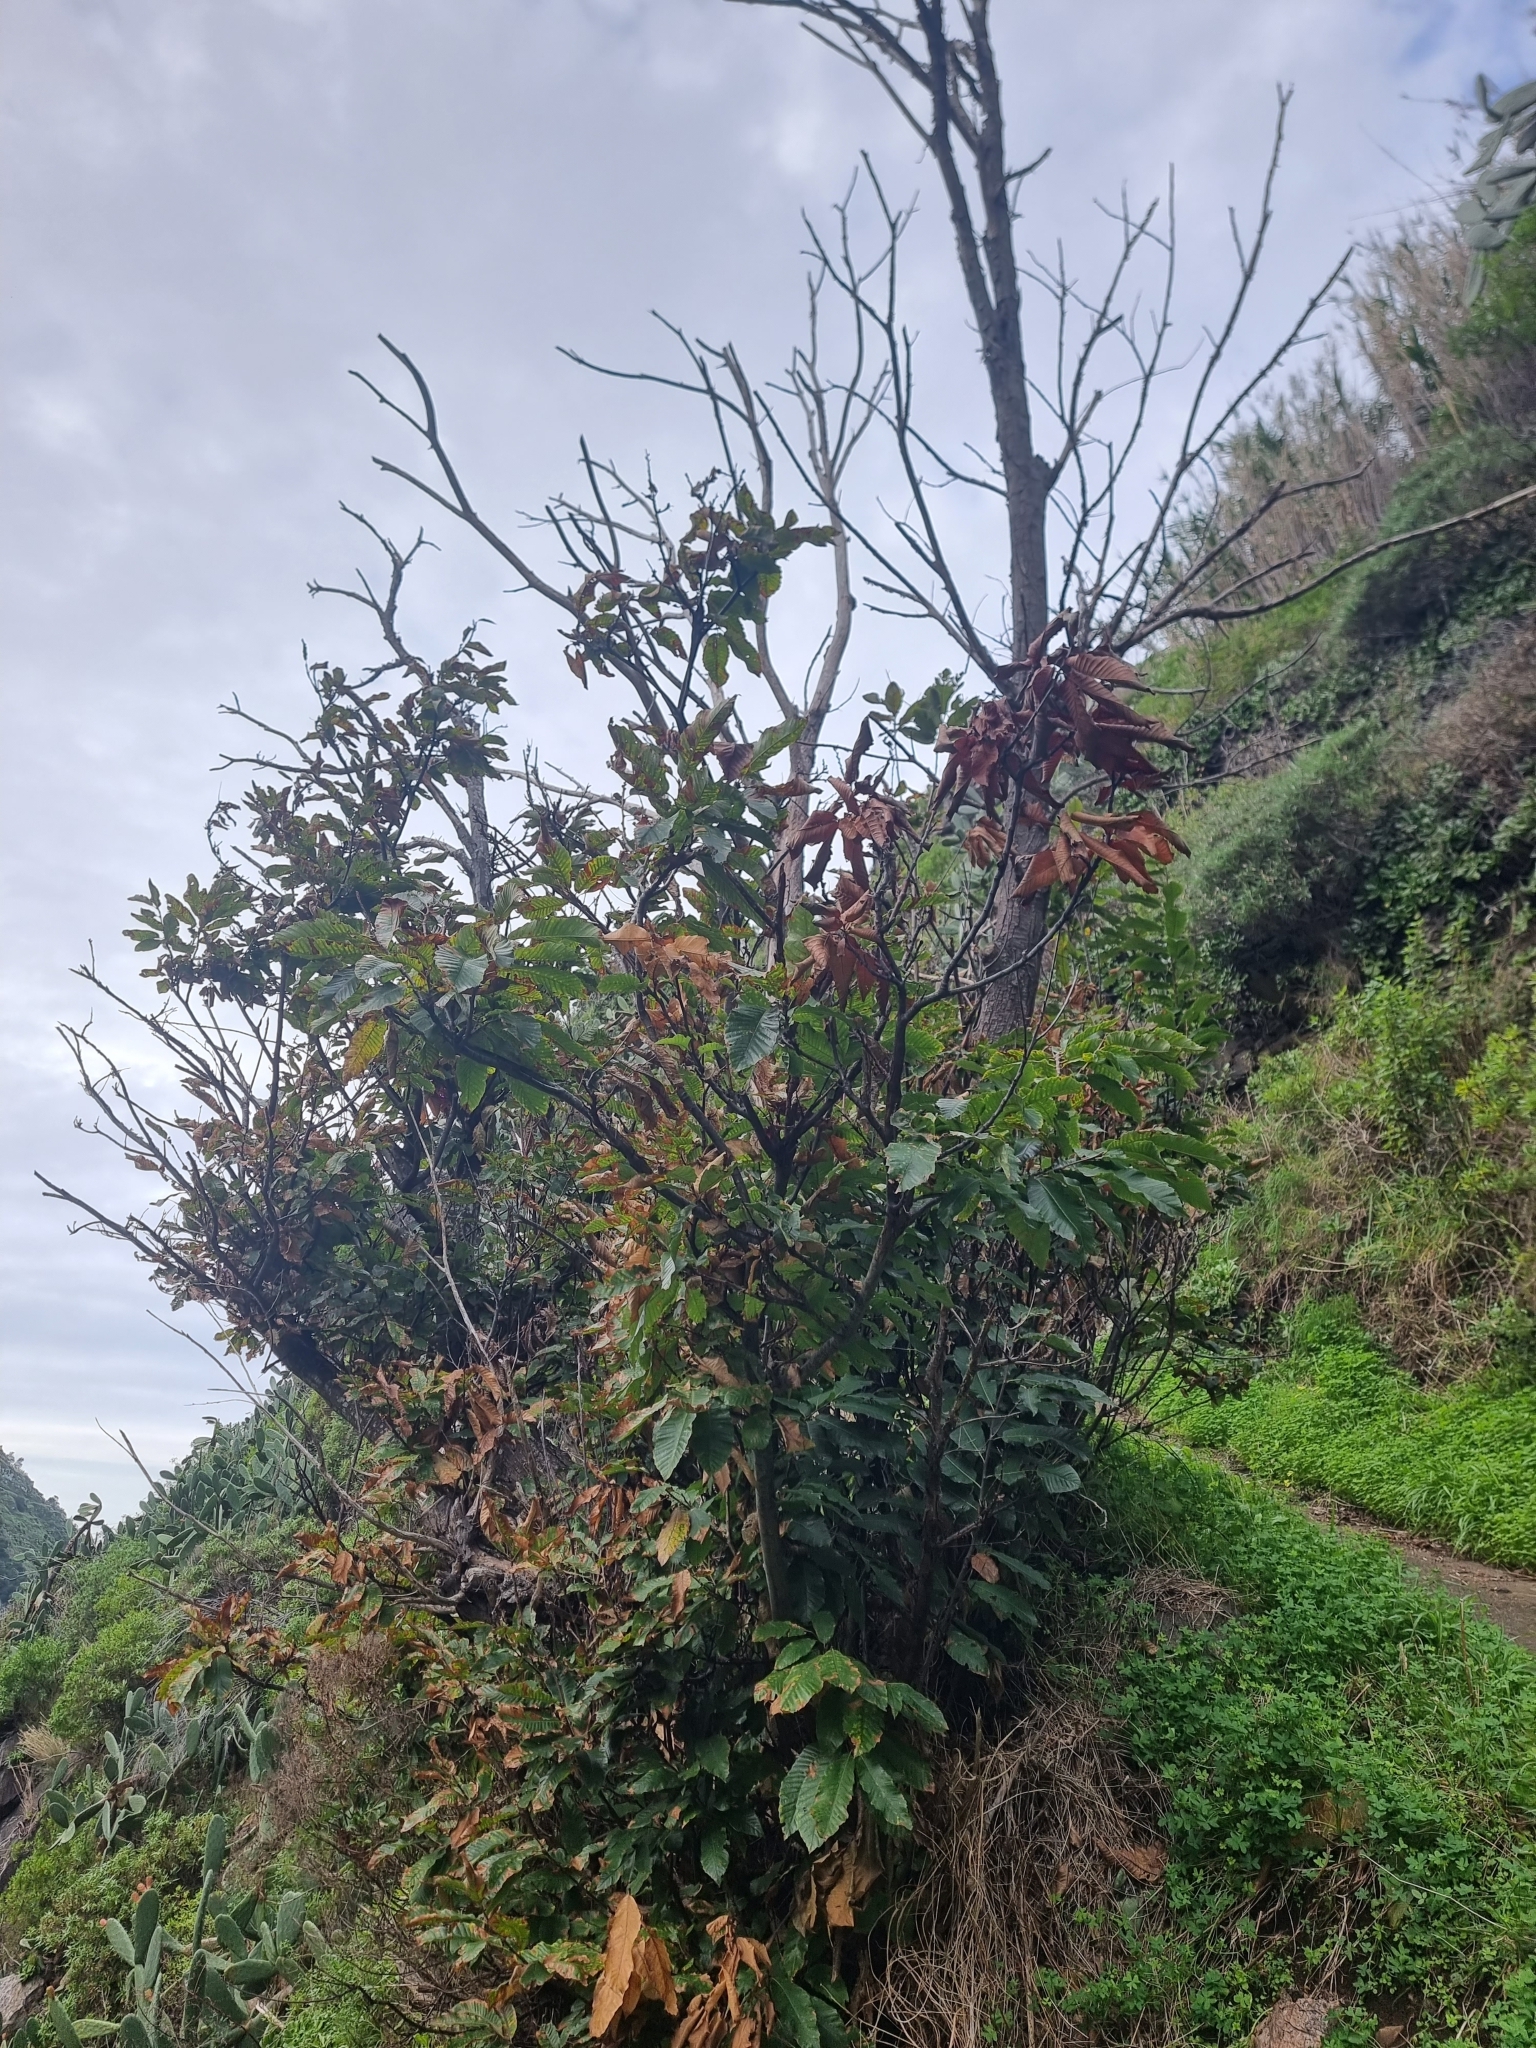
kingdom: Plantae
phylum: Tracheophyta
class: Magnoliopsida
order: Fagales
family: Fagaceae
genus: Castanea
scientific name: Castanea sativa
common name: Sweet chestnut
